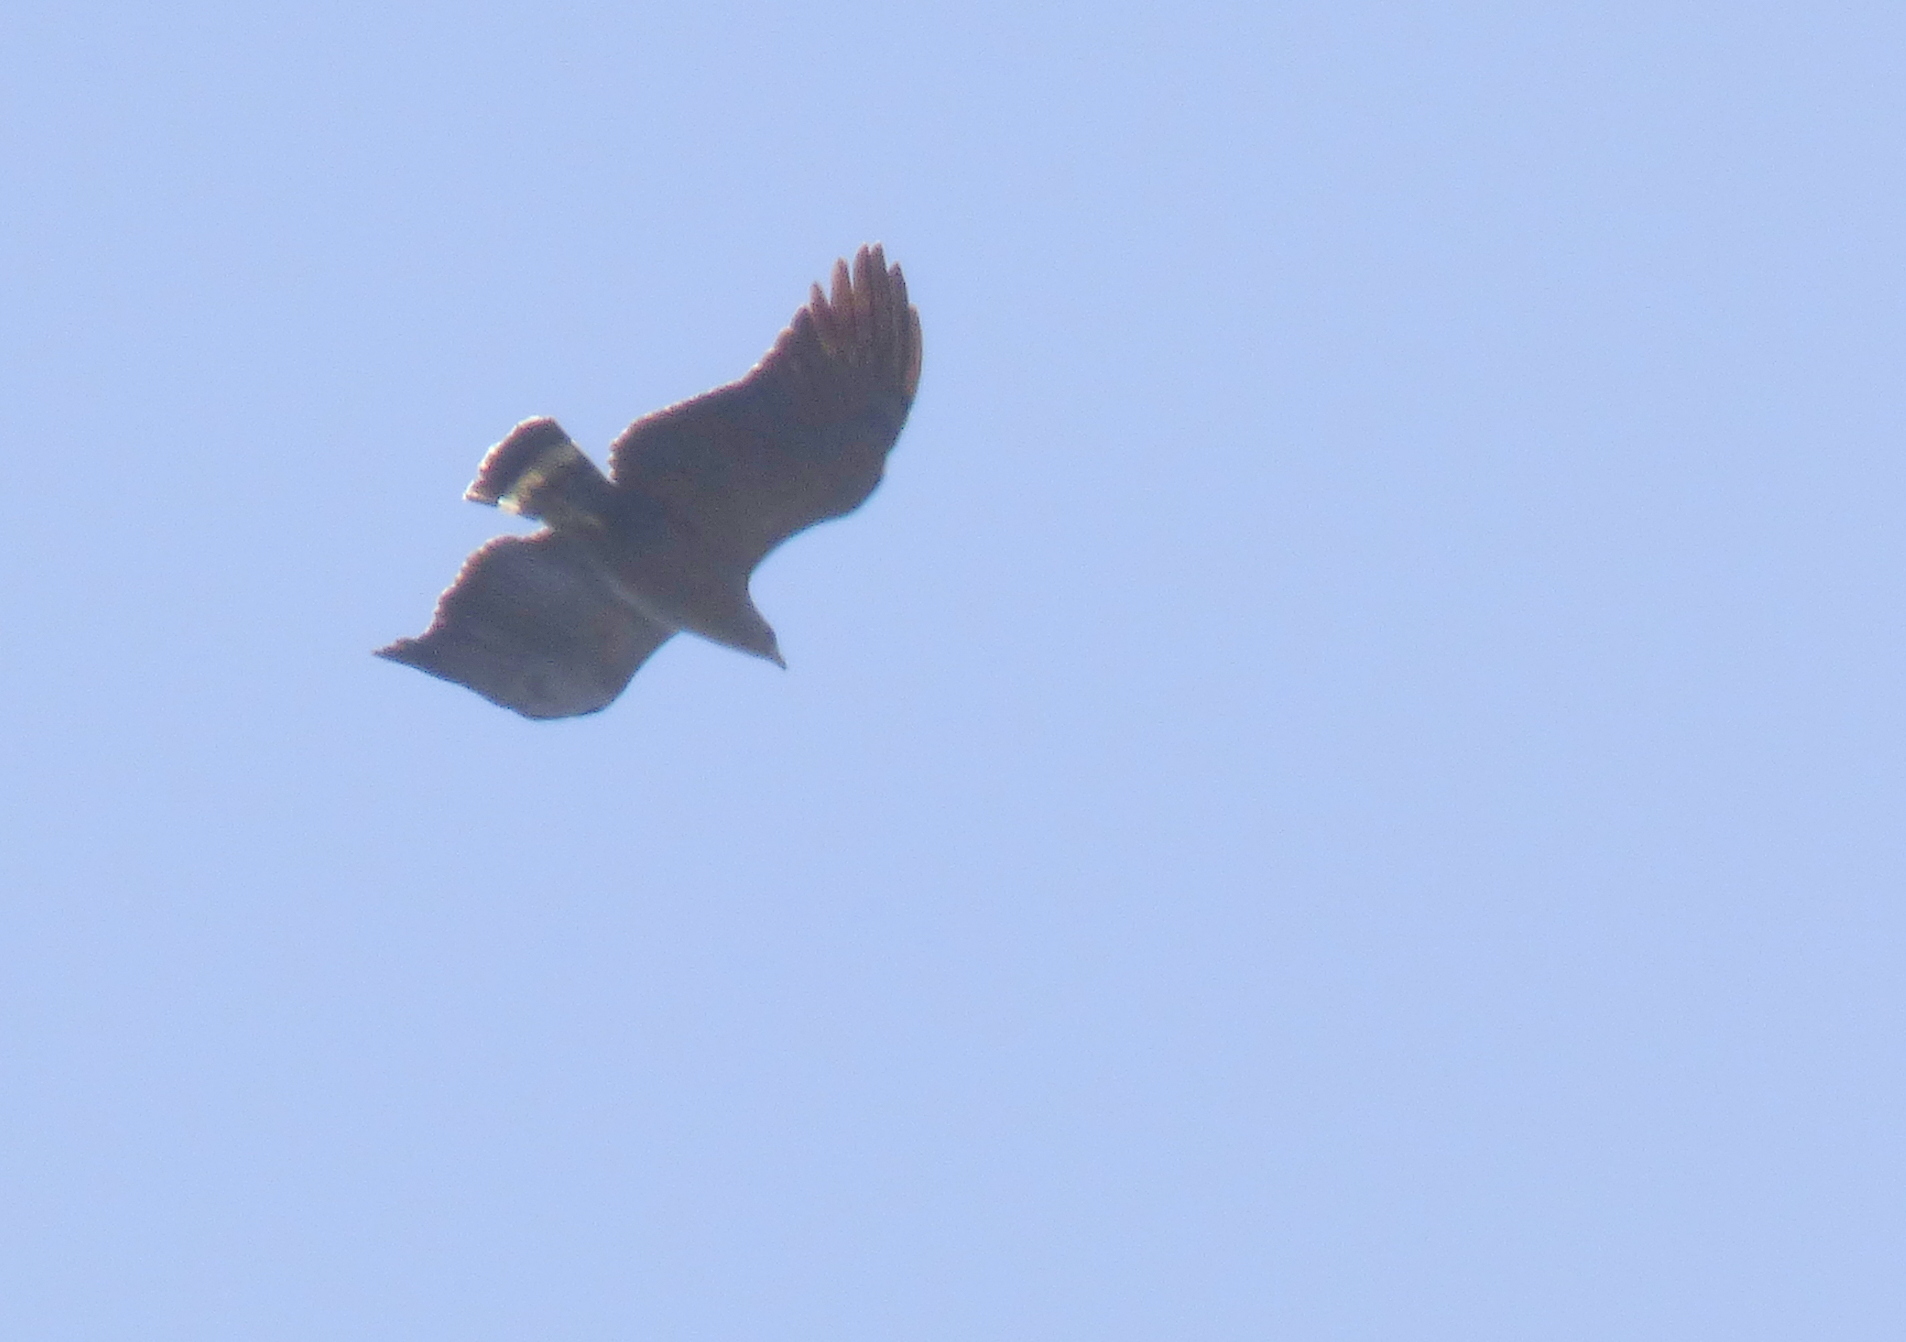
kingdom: Animalia
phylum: Chordata
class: Aves
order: Accipitriformes
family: Accipitridae
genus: Harpyhaliaetus
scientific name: Harpyhaliaetus coronatus
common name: Crowned solitary eagle
